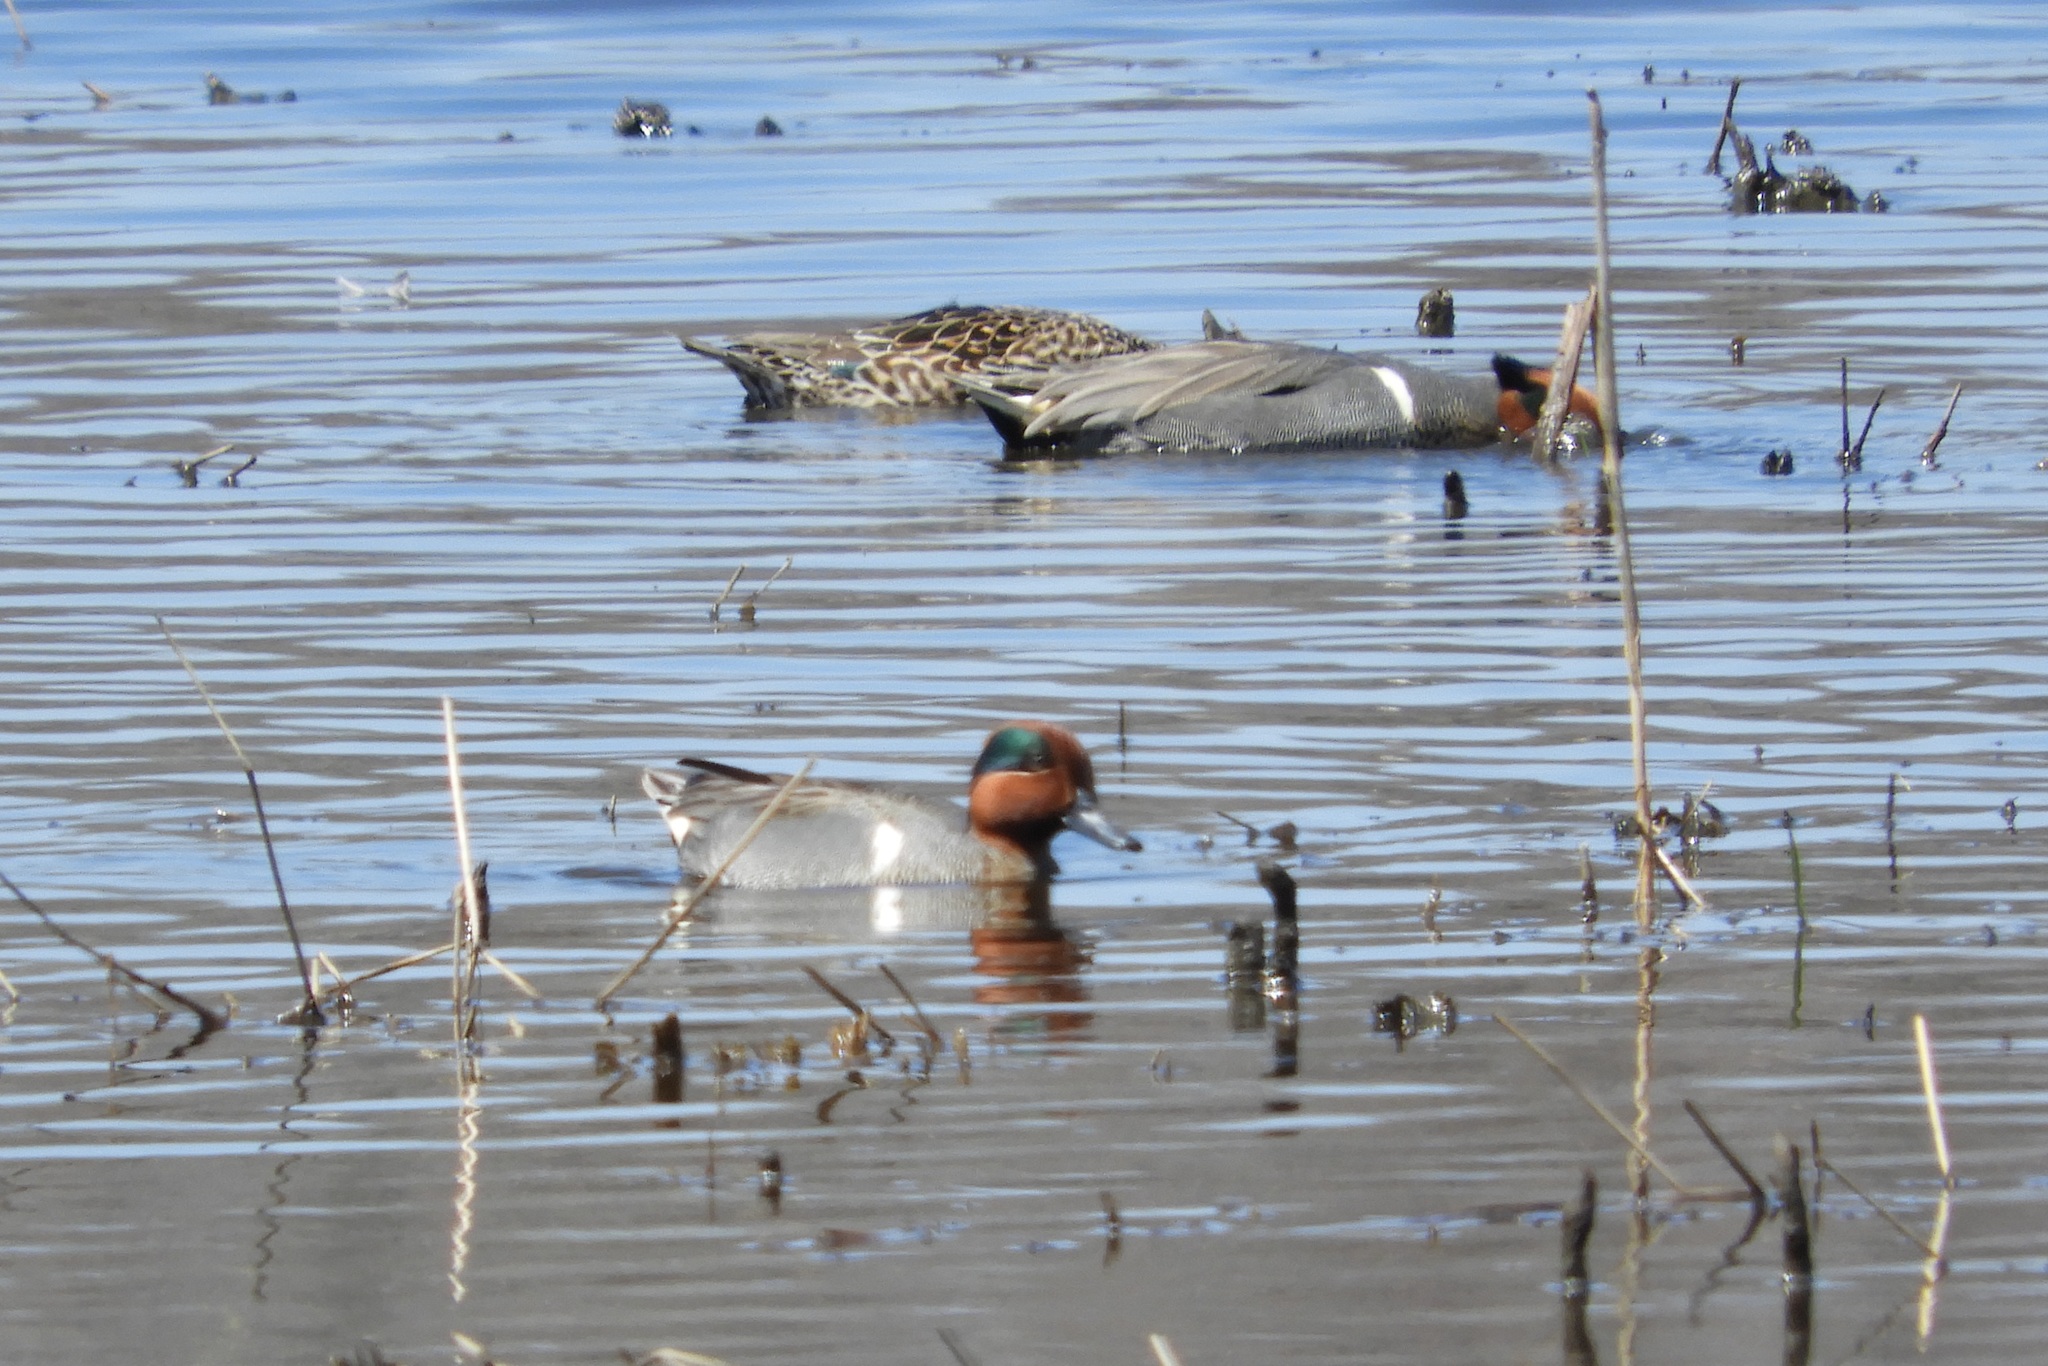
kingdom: Animalia
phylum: Chordata
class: Aves
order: Anseriformes
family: Anatidae
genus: Anas
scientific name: Anas crecca
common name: Eurasian teal
